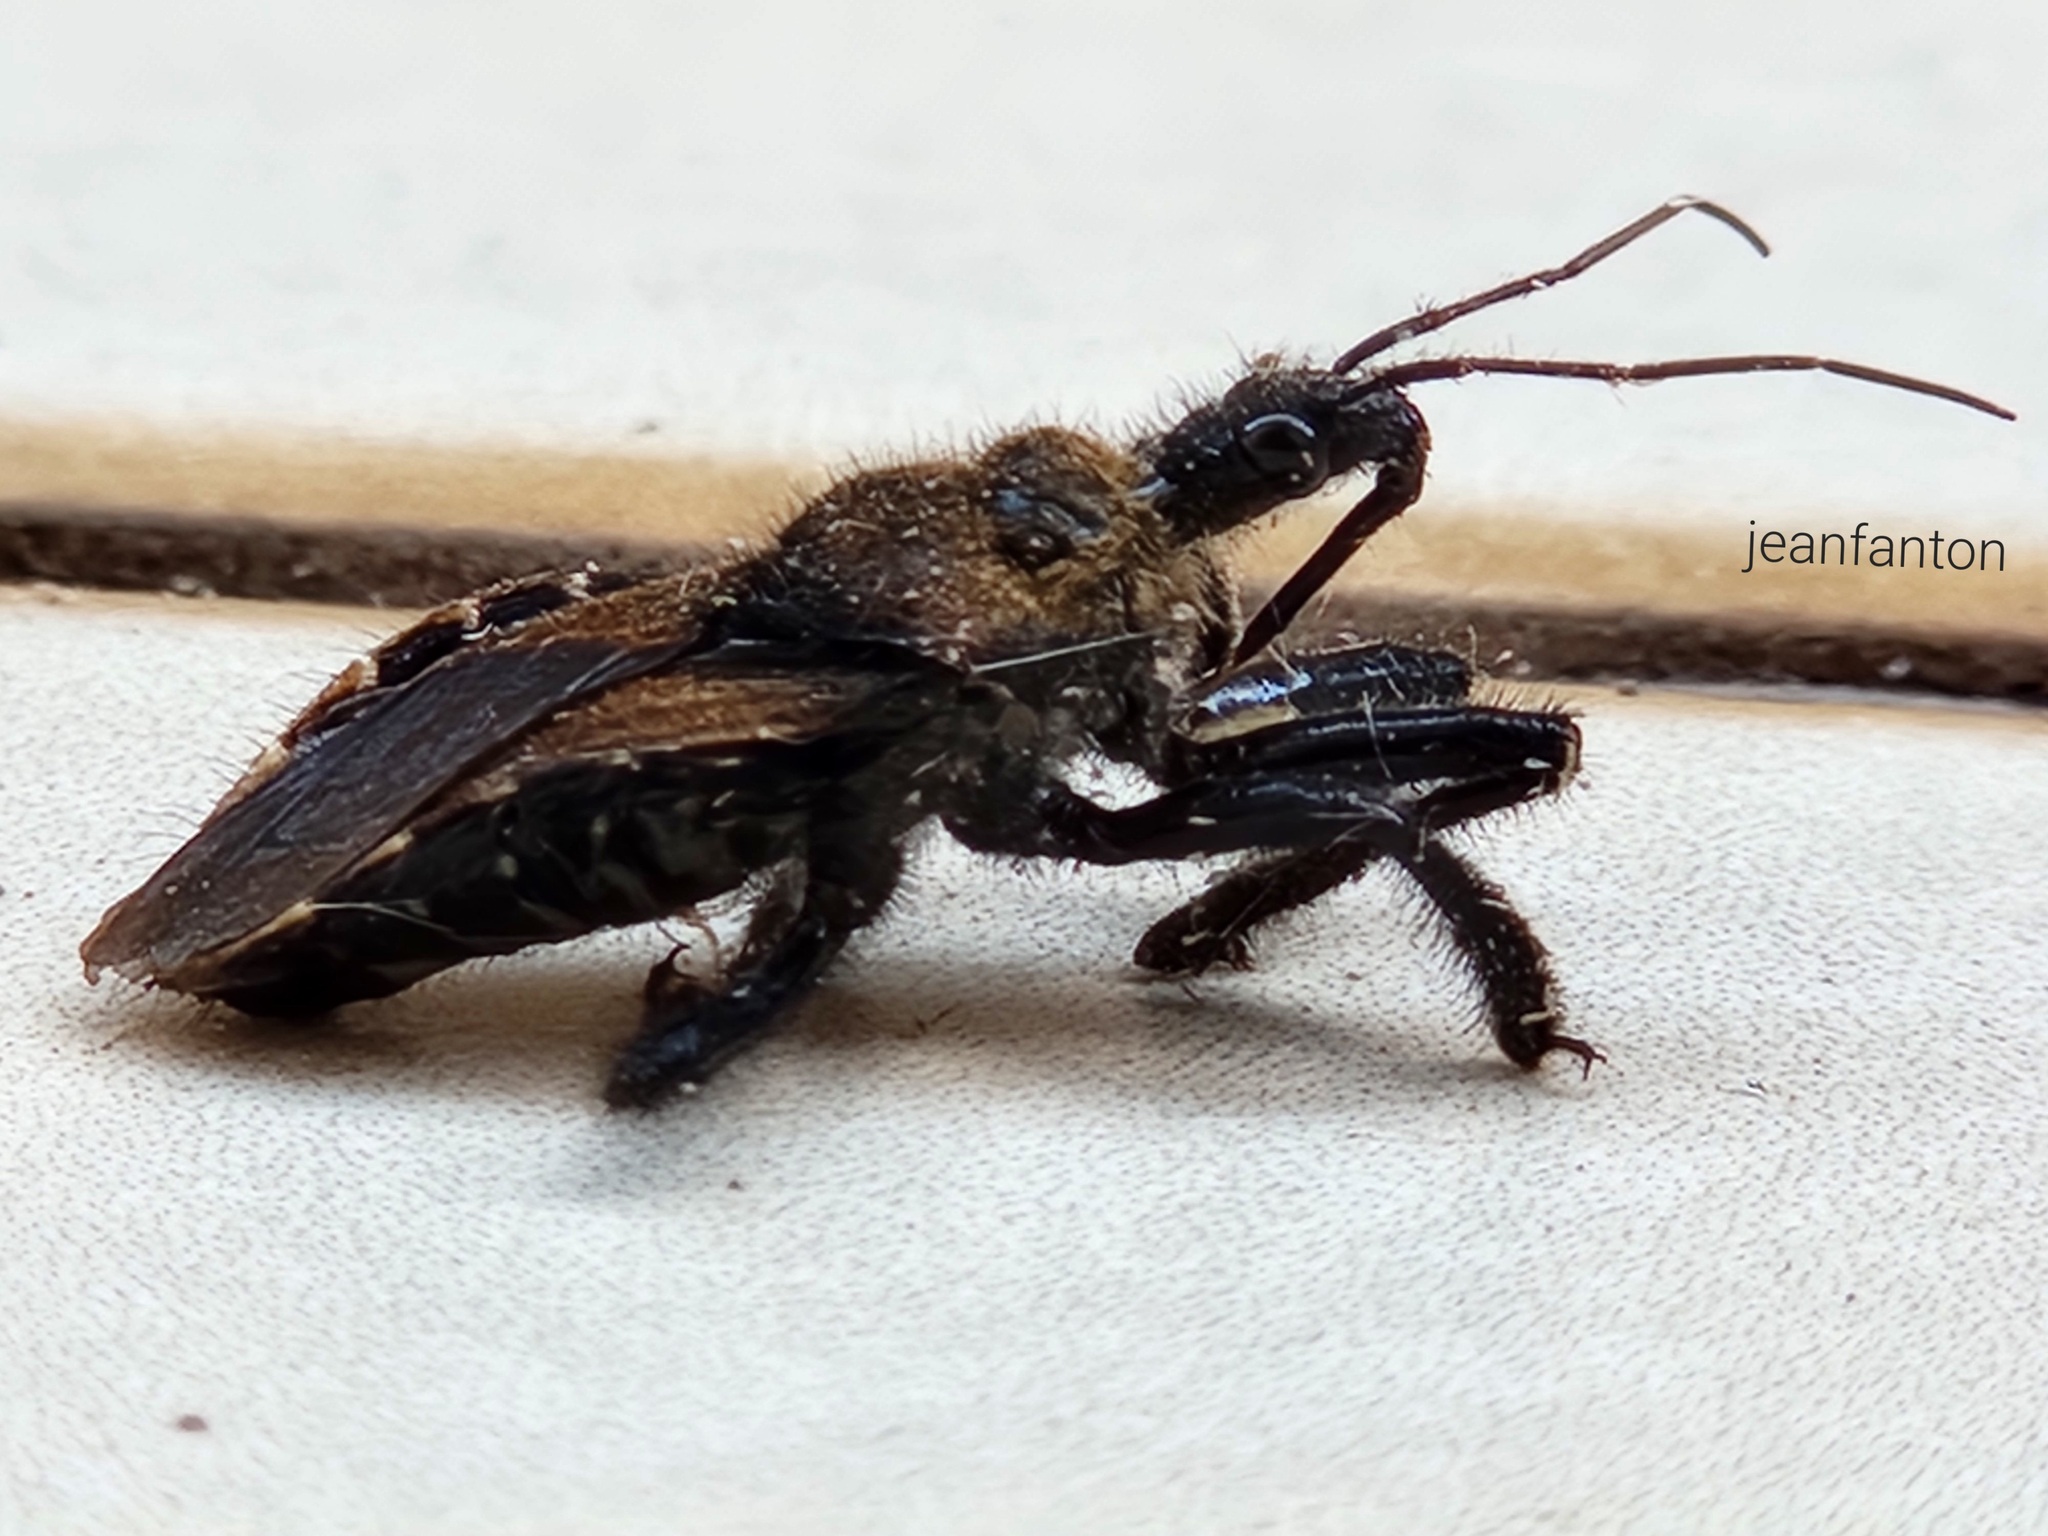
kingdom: Animalia
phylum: Arthropoda
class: Insecta
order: Hemiptera
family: Reduviidae
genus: Apiomerus
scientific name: Apiomerus flavipennis
